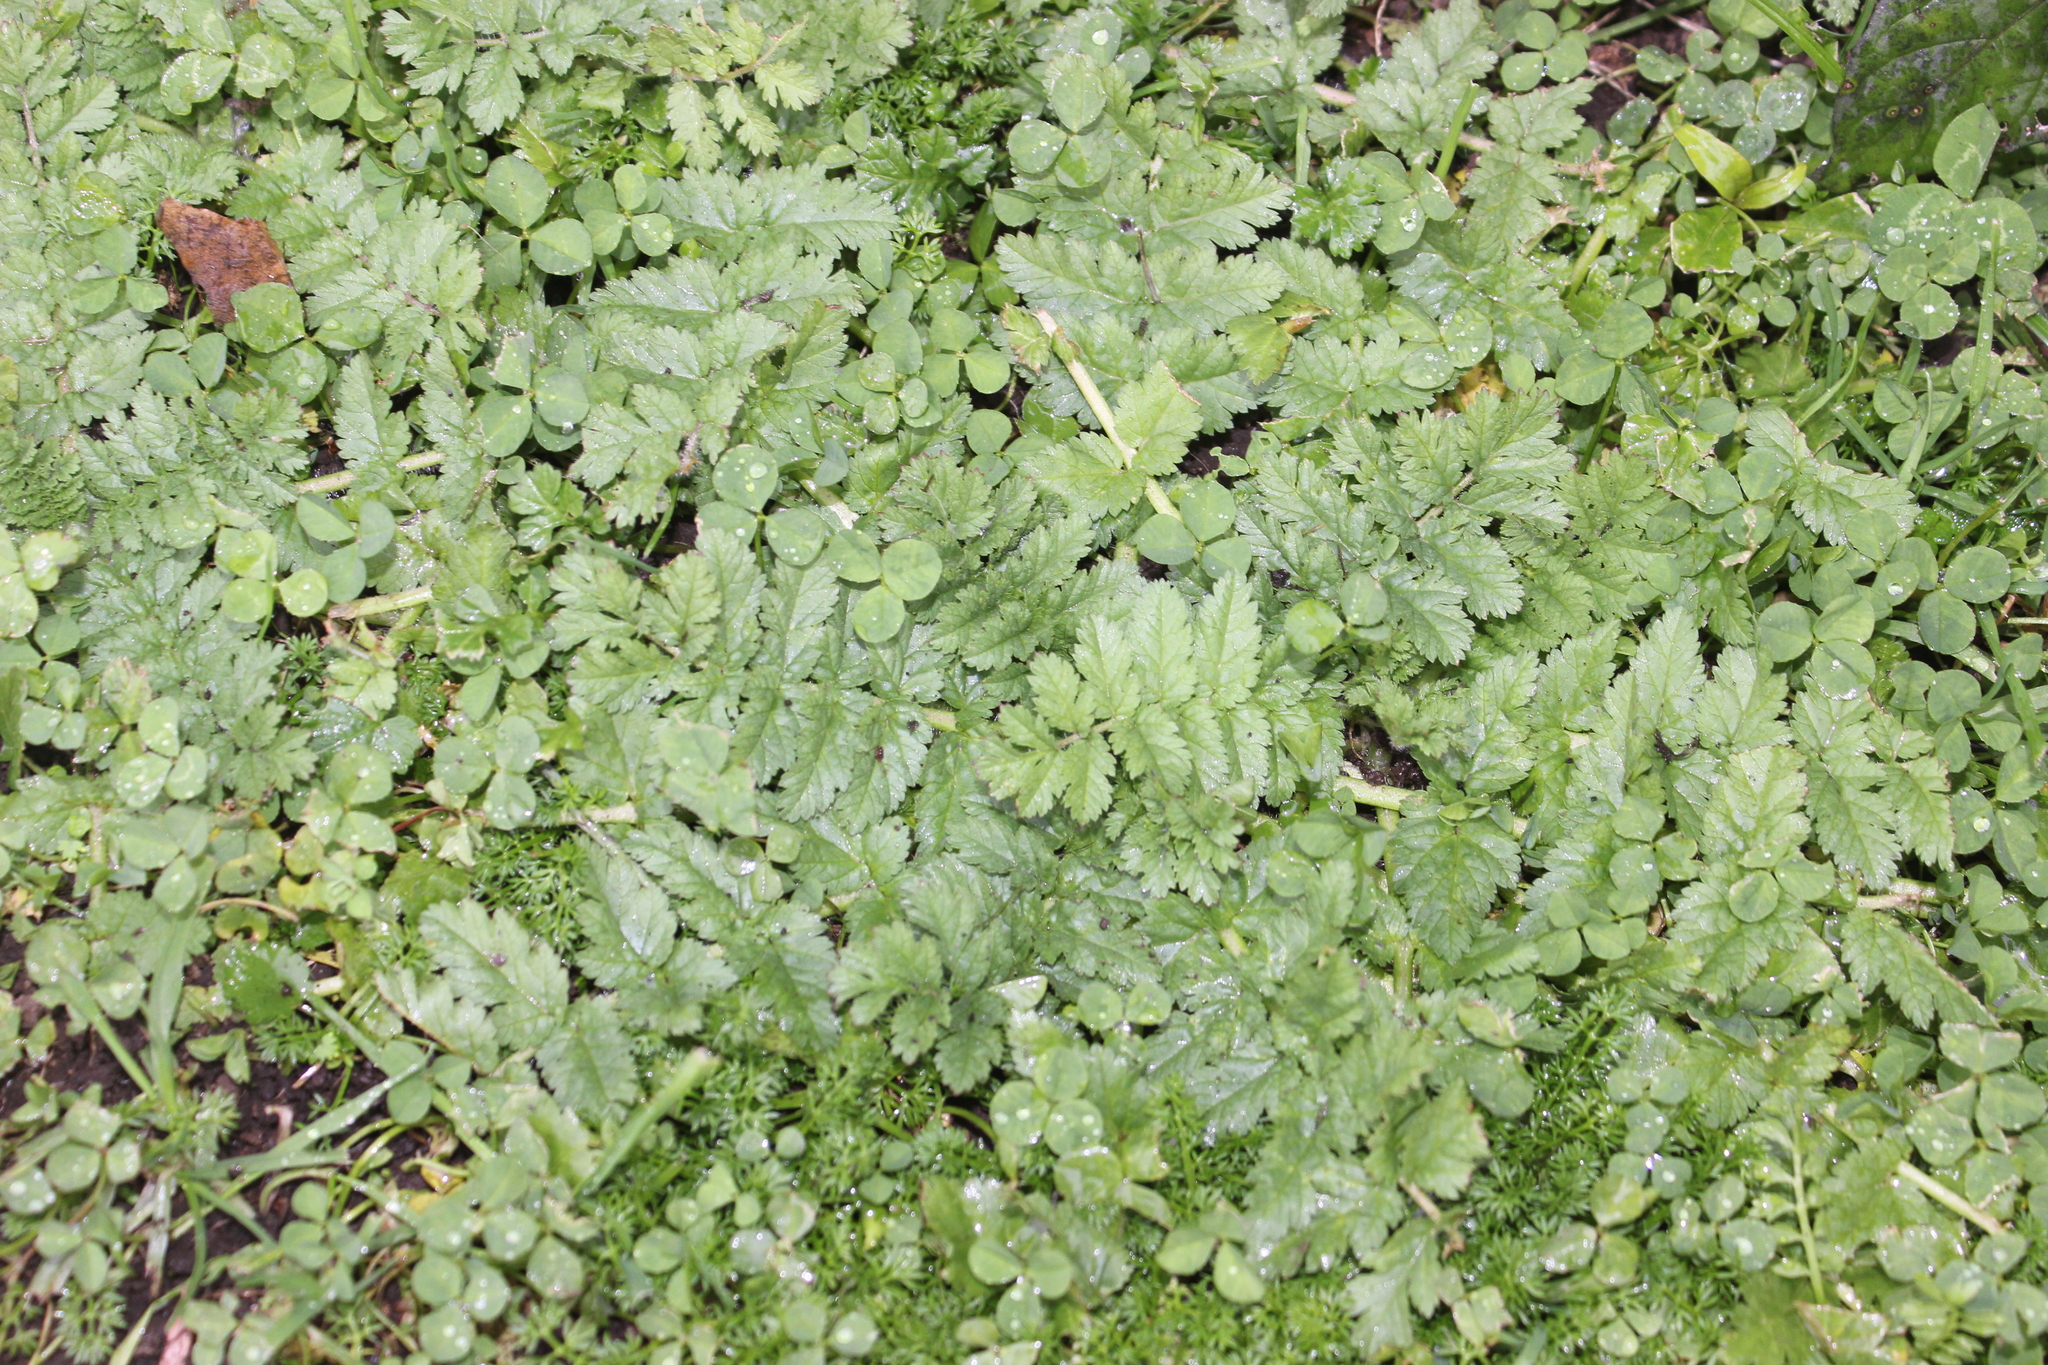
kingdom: Plantae
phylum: Tracheophyta
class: Magnoliopsida
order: Geraniales
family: Geraniaceae
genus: Erodium
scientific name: Erodium moschatum
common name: Musk stork's-bill
